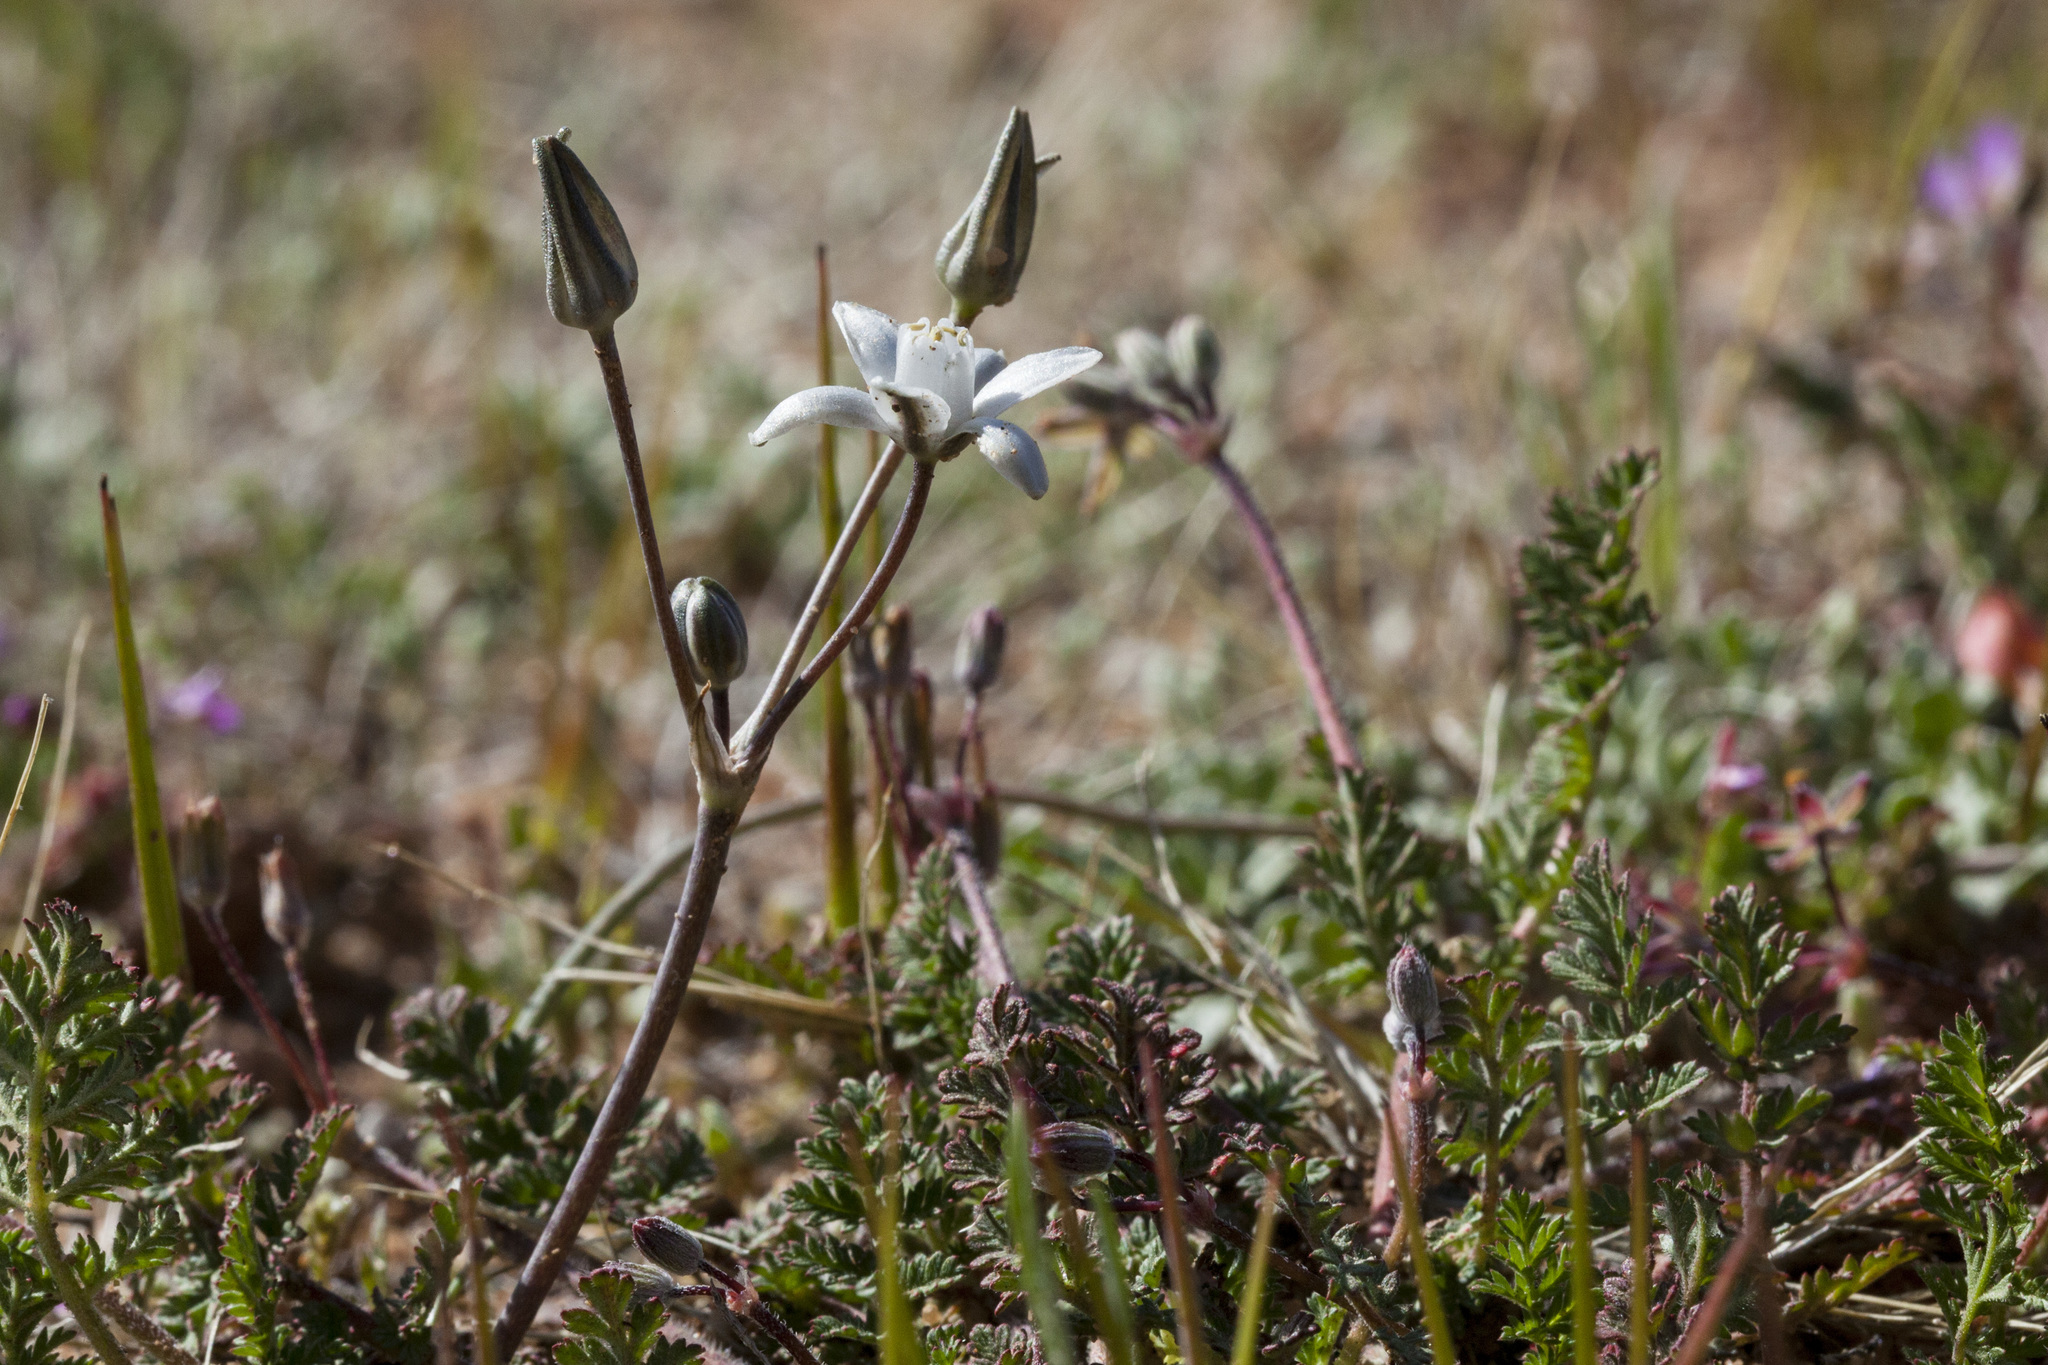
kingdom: Plantae
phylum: Tracheophyta
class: Liliopsida
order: Asparagales
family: Asparagaceae
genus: Muilla
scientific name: Muilla lordsburgana
